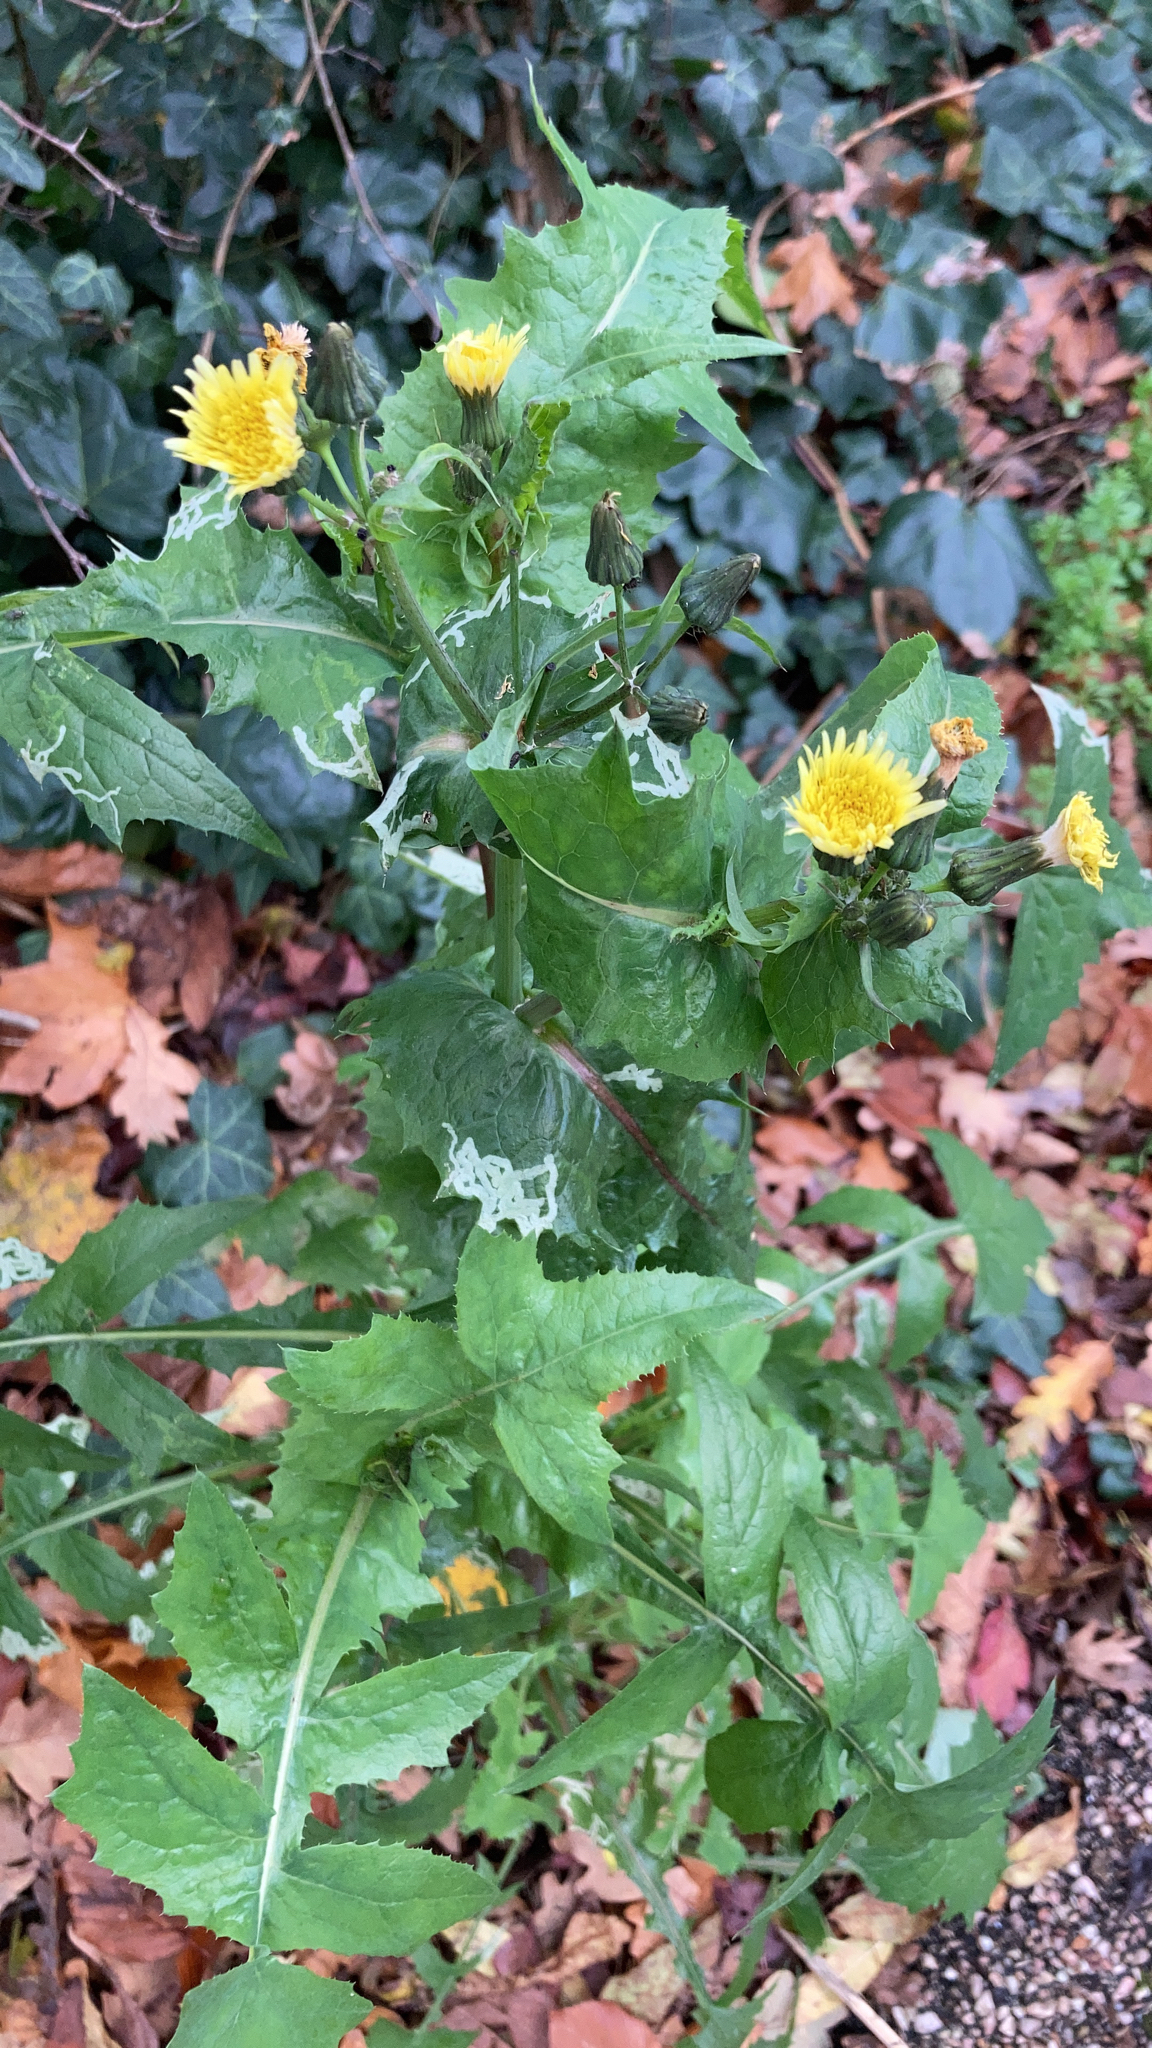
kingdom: Plantae
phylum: Tracheophyta
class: Magnoliopsida
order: Asterales
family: Asteraceae
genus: Sonchus
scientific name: Sonchus oleraceus
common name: Common sowthistle
